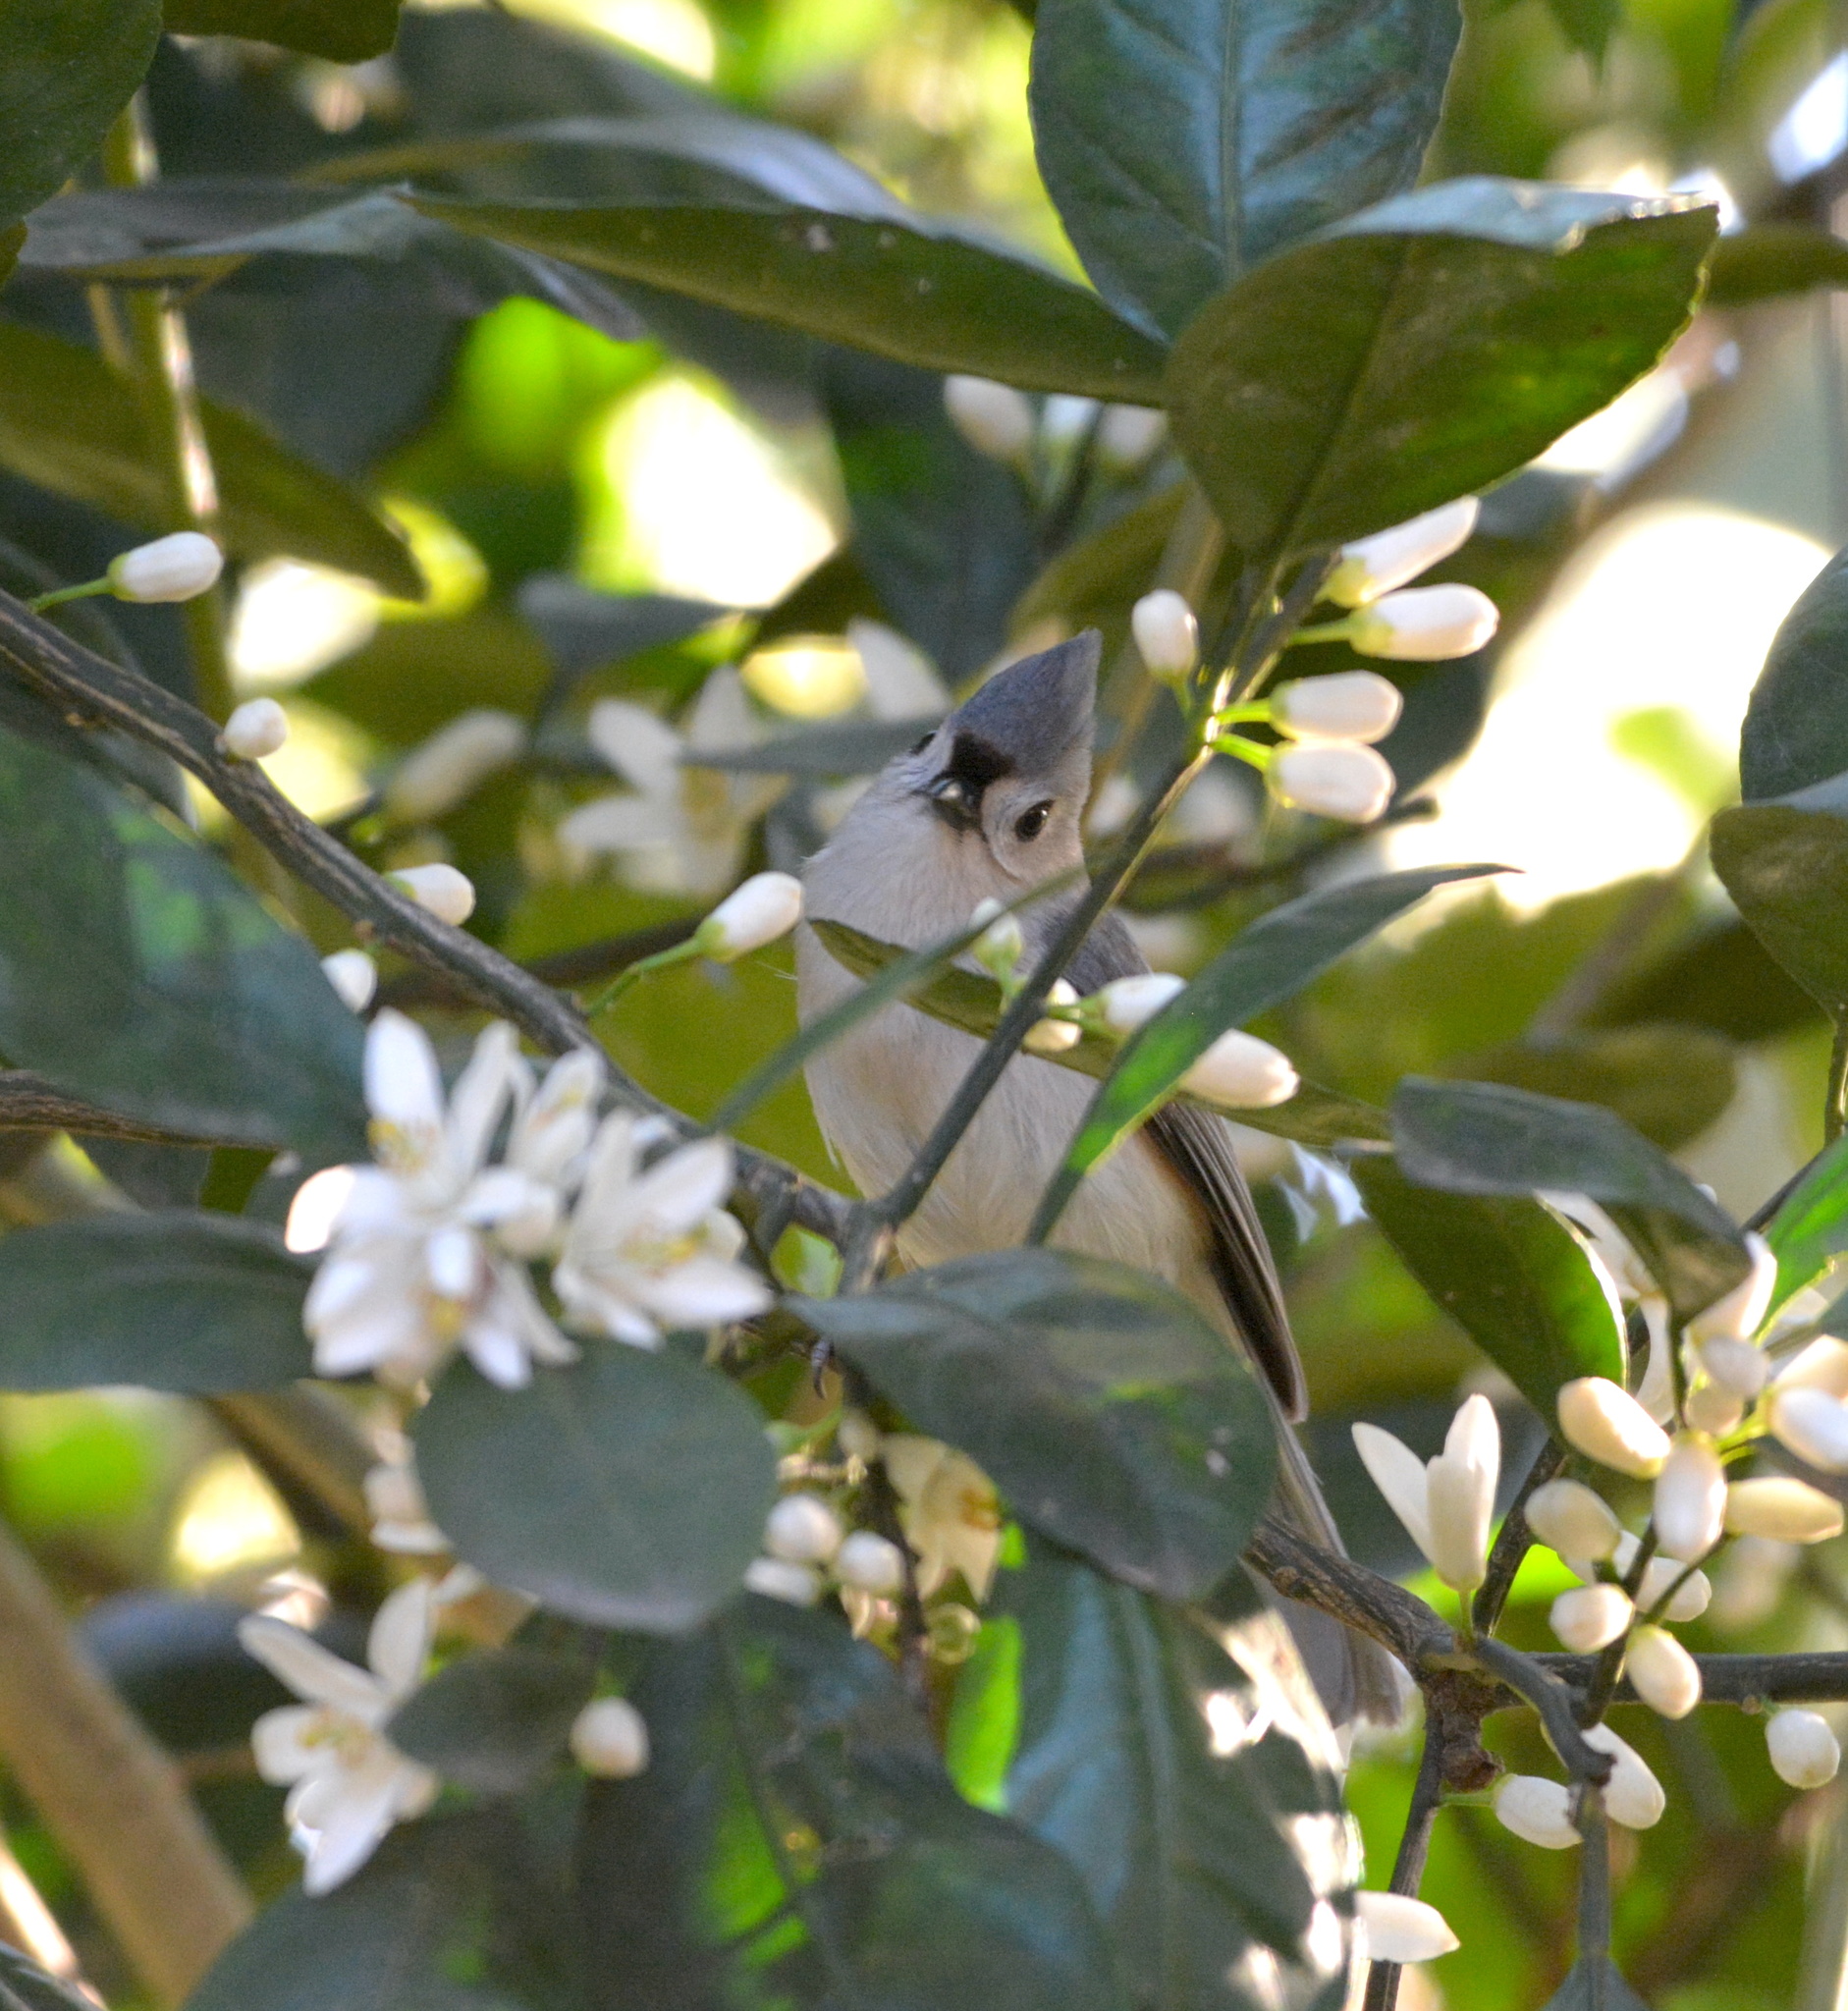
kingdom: Animalia
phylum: Chordata
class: Aves
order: Passeriformes
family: Paridae
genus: Baeolophus
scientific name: Baeolophus bicolor
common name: Tufted titmouse
